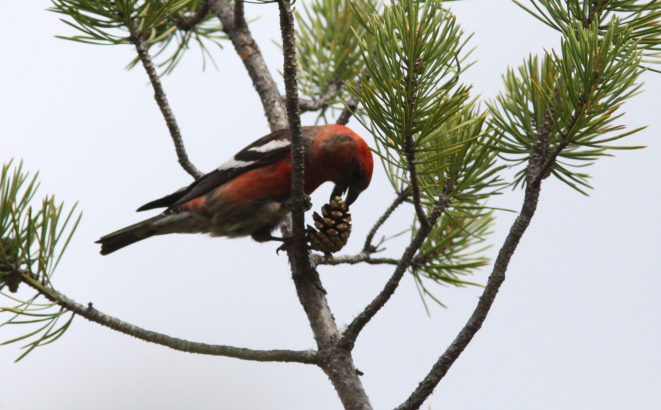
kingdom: Animalia
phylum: Chordata
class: Aves
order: Passeriformes
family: Fringillidae
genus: Loxia
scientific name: Loxia leucoptera
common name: Two-barred crossbill
